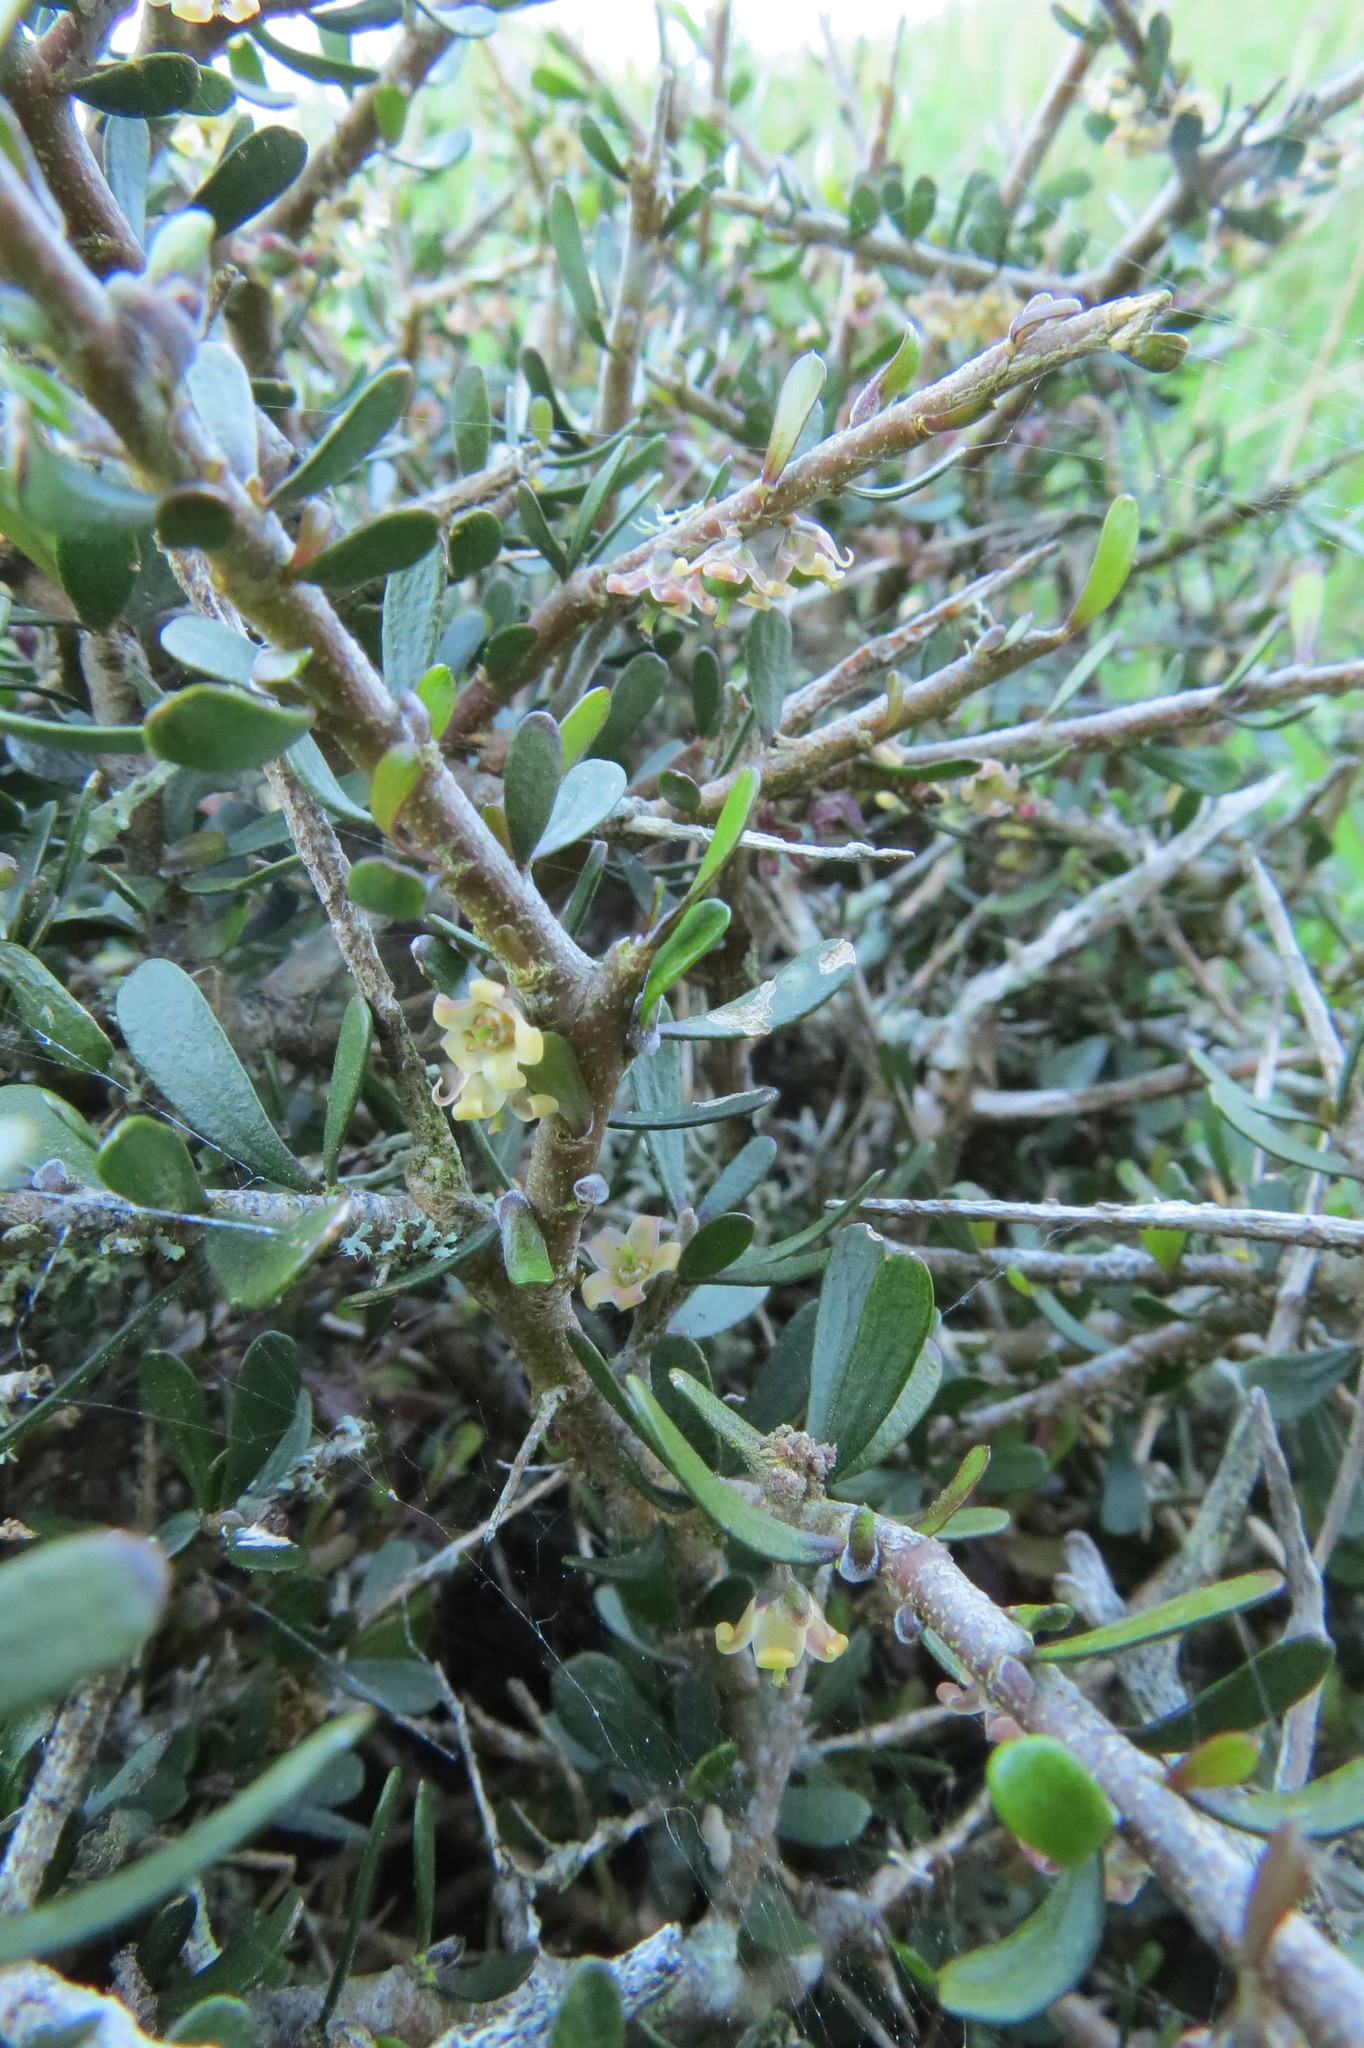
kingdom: Plantae
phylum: Tracheophyta
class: Magnoliopsida
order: Malpighiales
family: Violaceae
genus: Melicytus
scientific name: Melicytus alpinus
